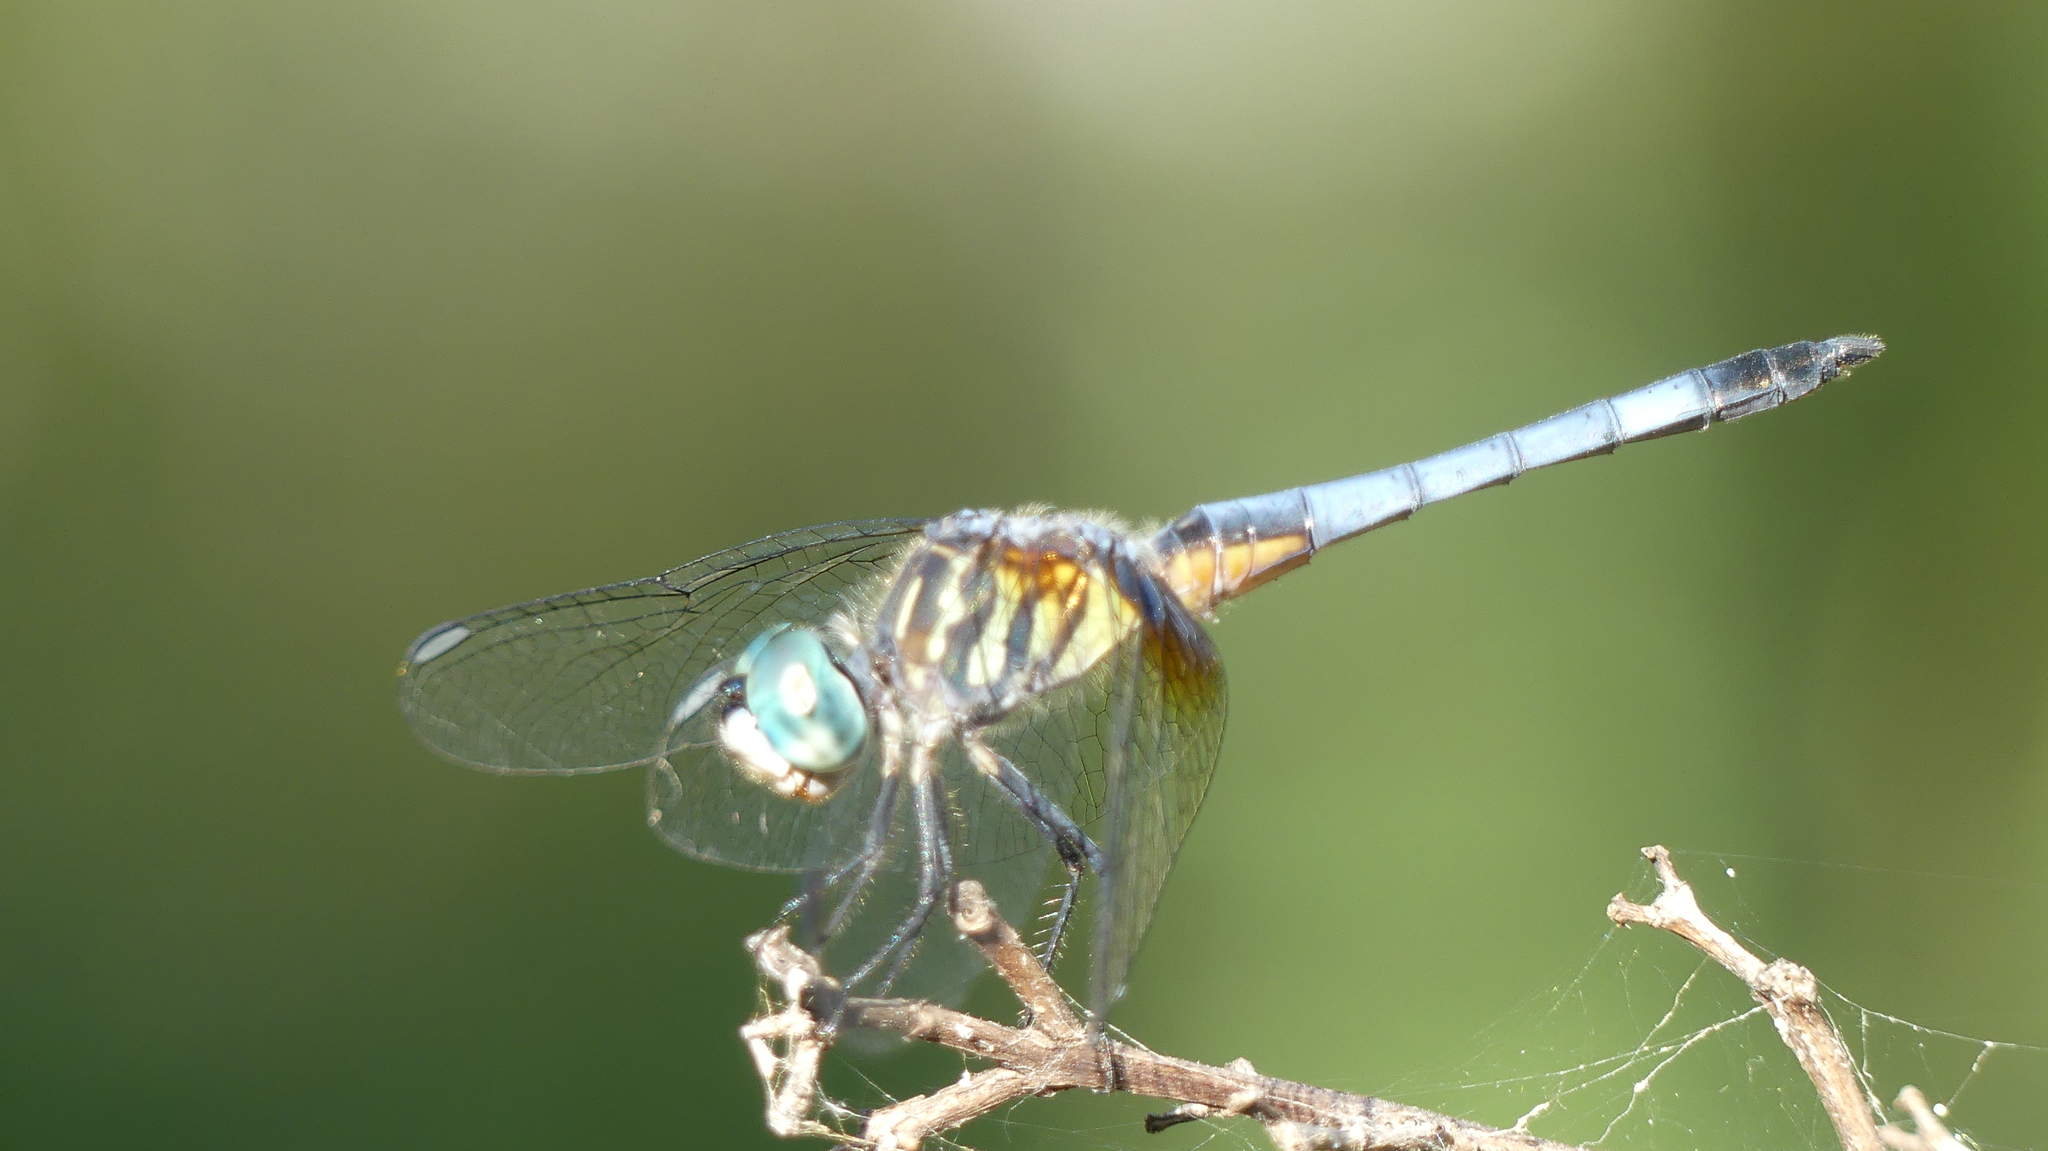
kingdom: Animalia
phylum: Arthropoda
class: Insecta
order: Odonata
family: Libellulidae
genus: Pachydiplax
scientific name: Pachydiplax longipennis
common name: Blue dasher
